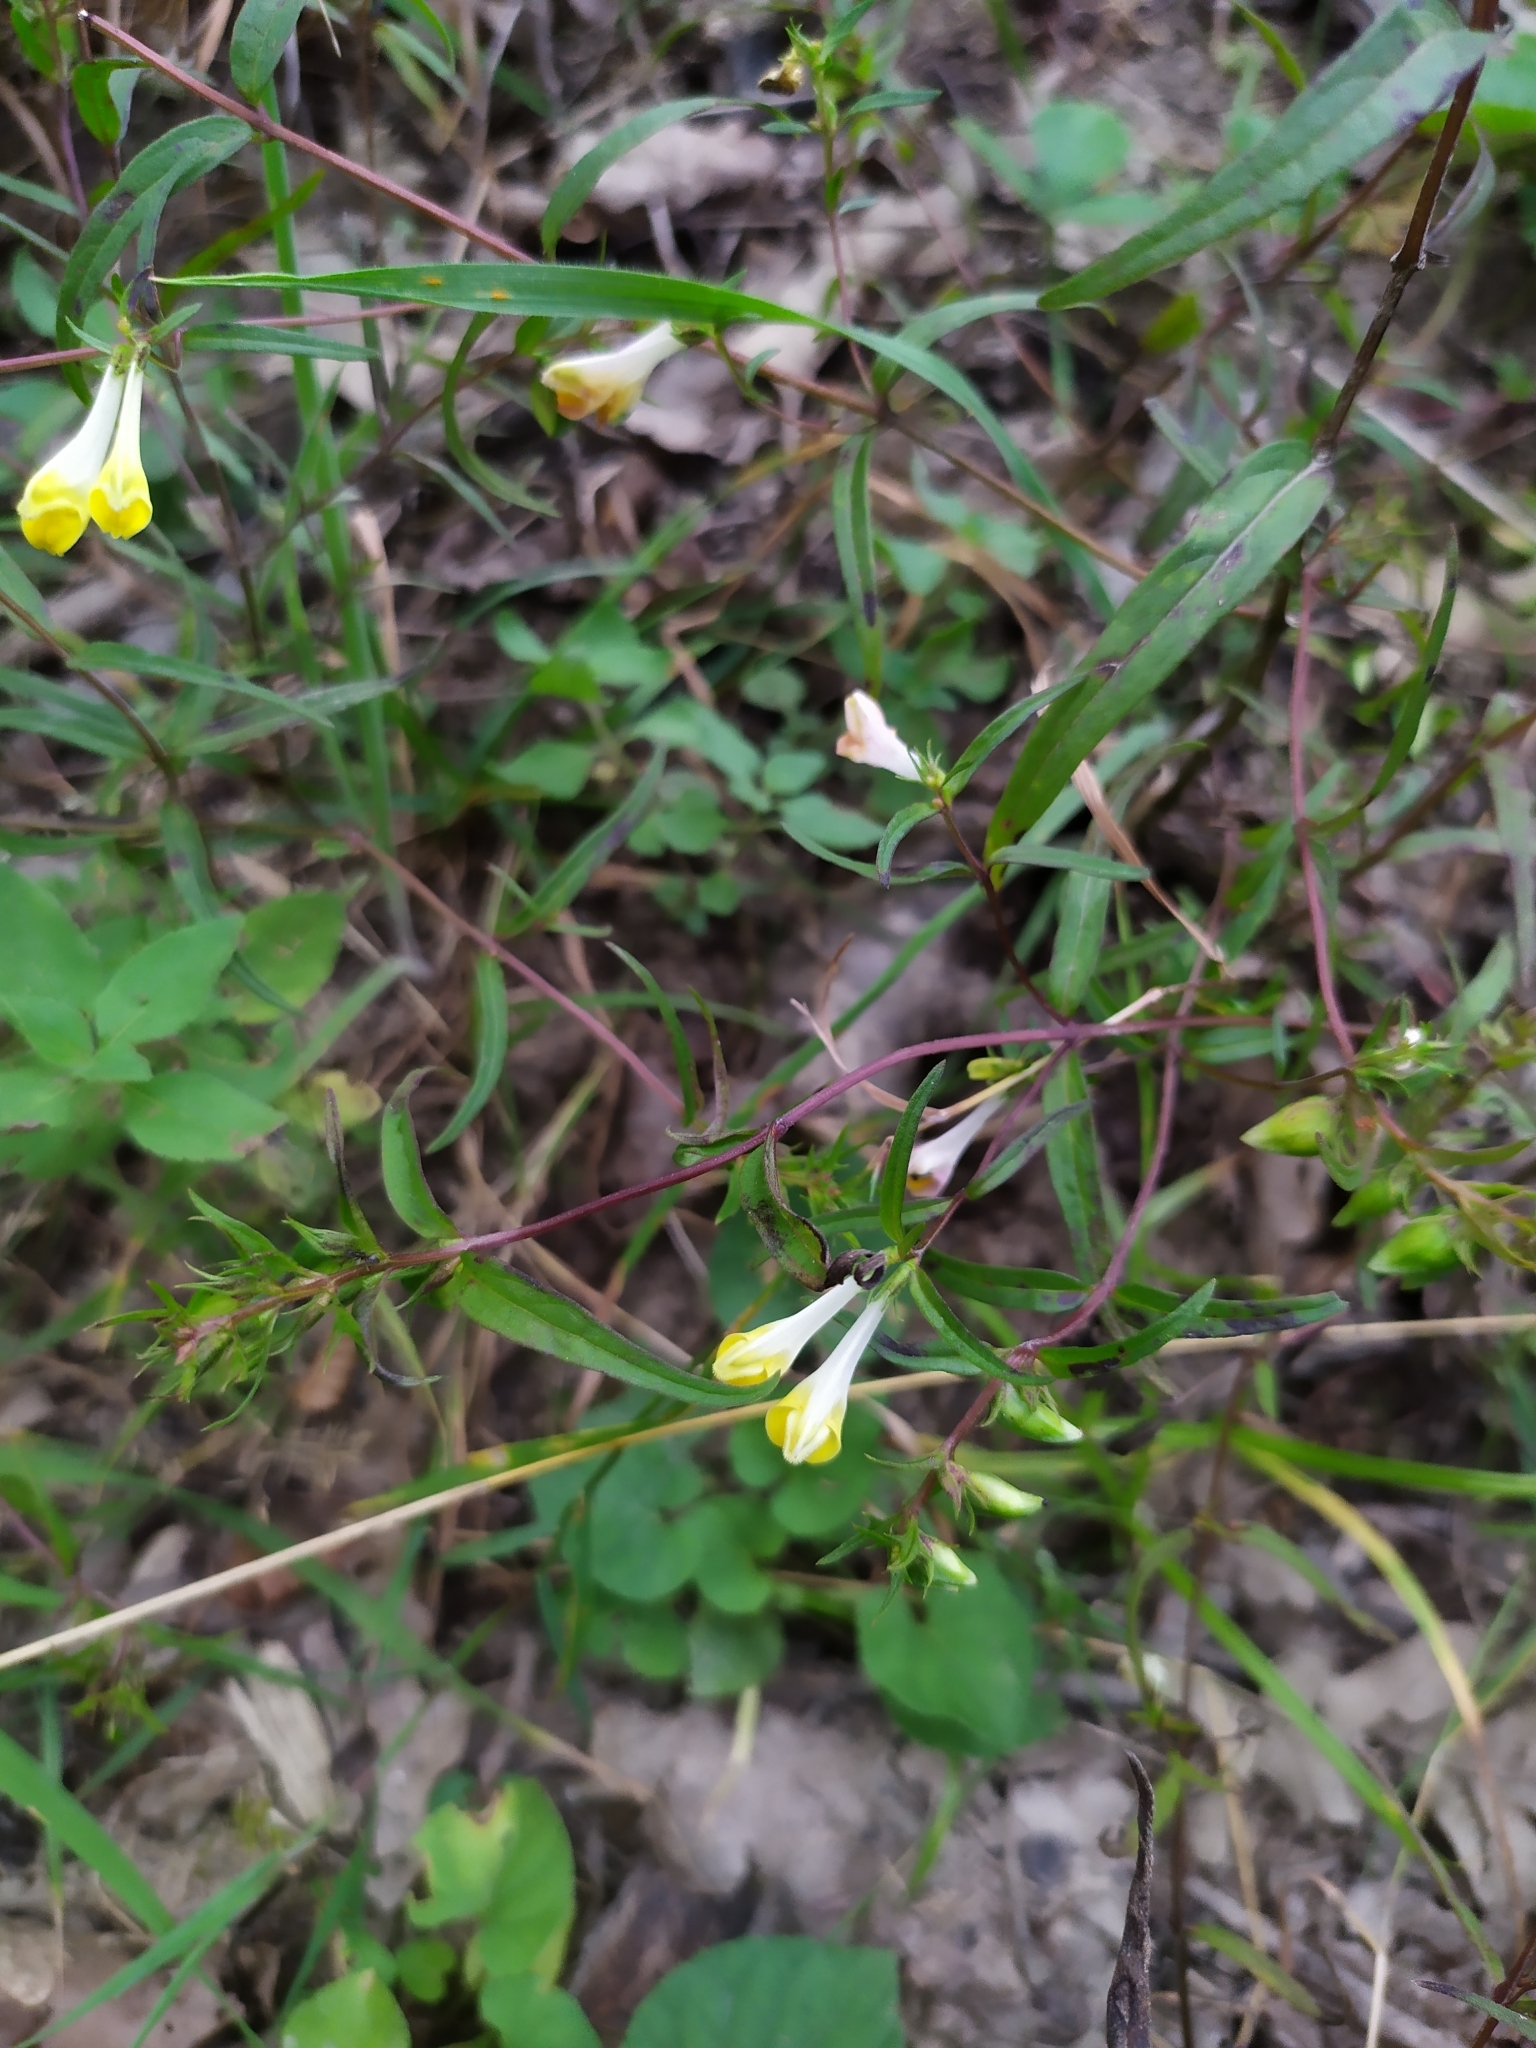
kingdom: Plantae
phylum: Tracheophyta
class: Magnoliopsida
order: Lamiales
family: Orobanchaceae
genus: Melampyrum
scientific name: Melampyrum pratense
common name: Common cow-wheat
